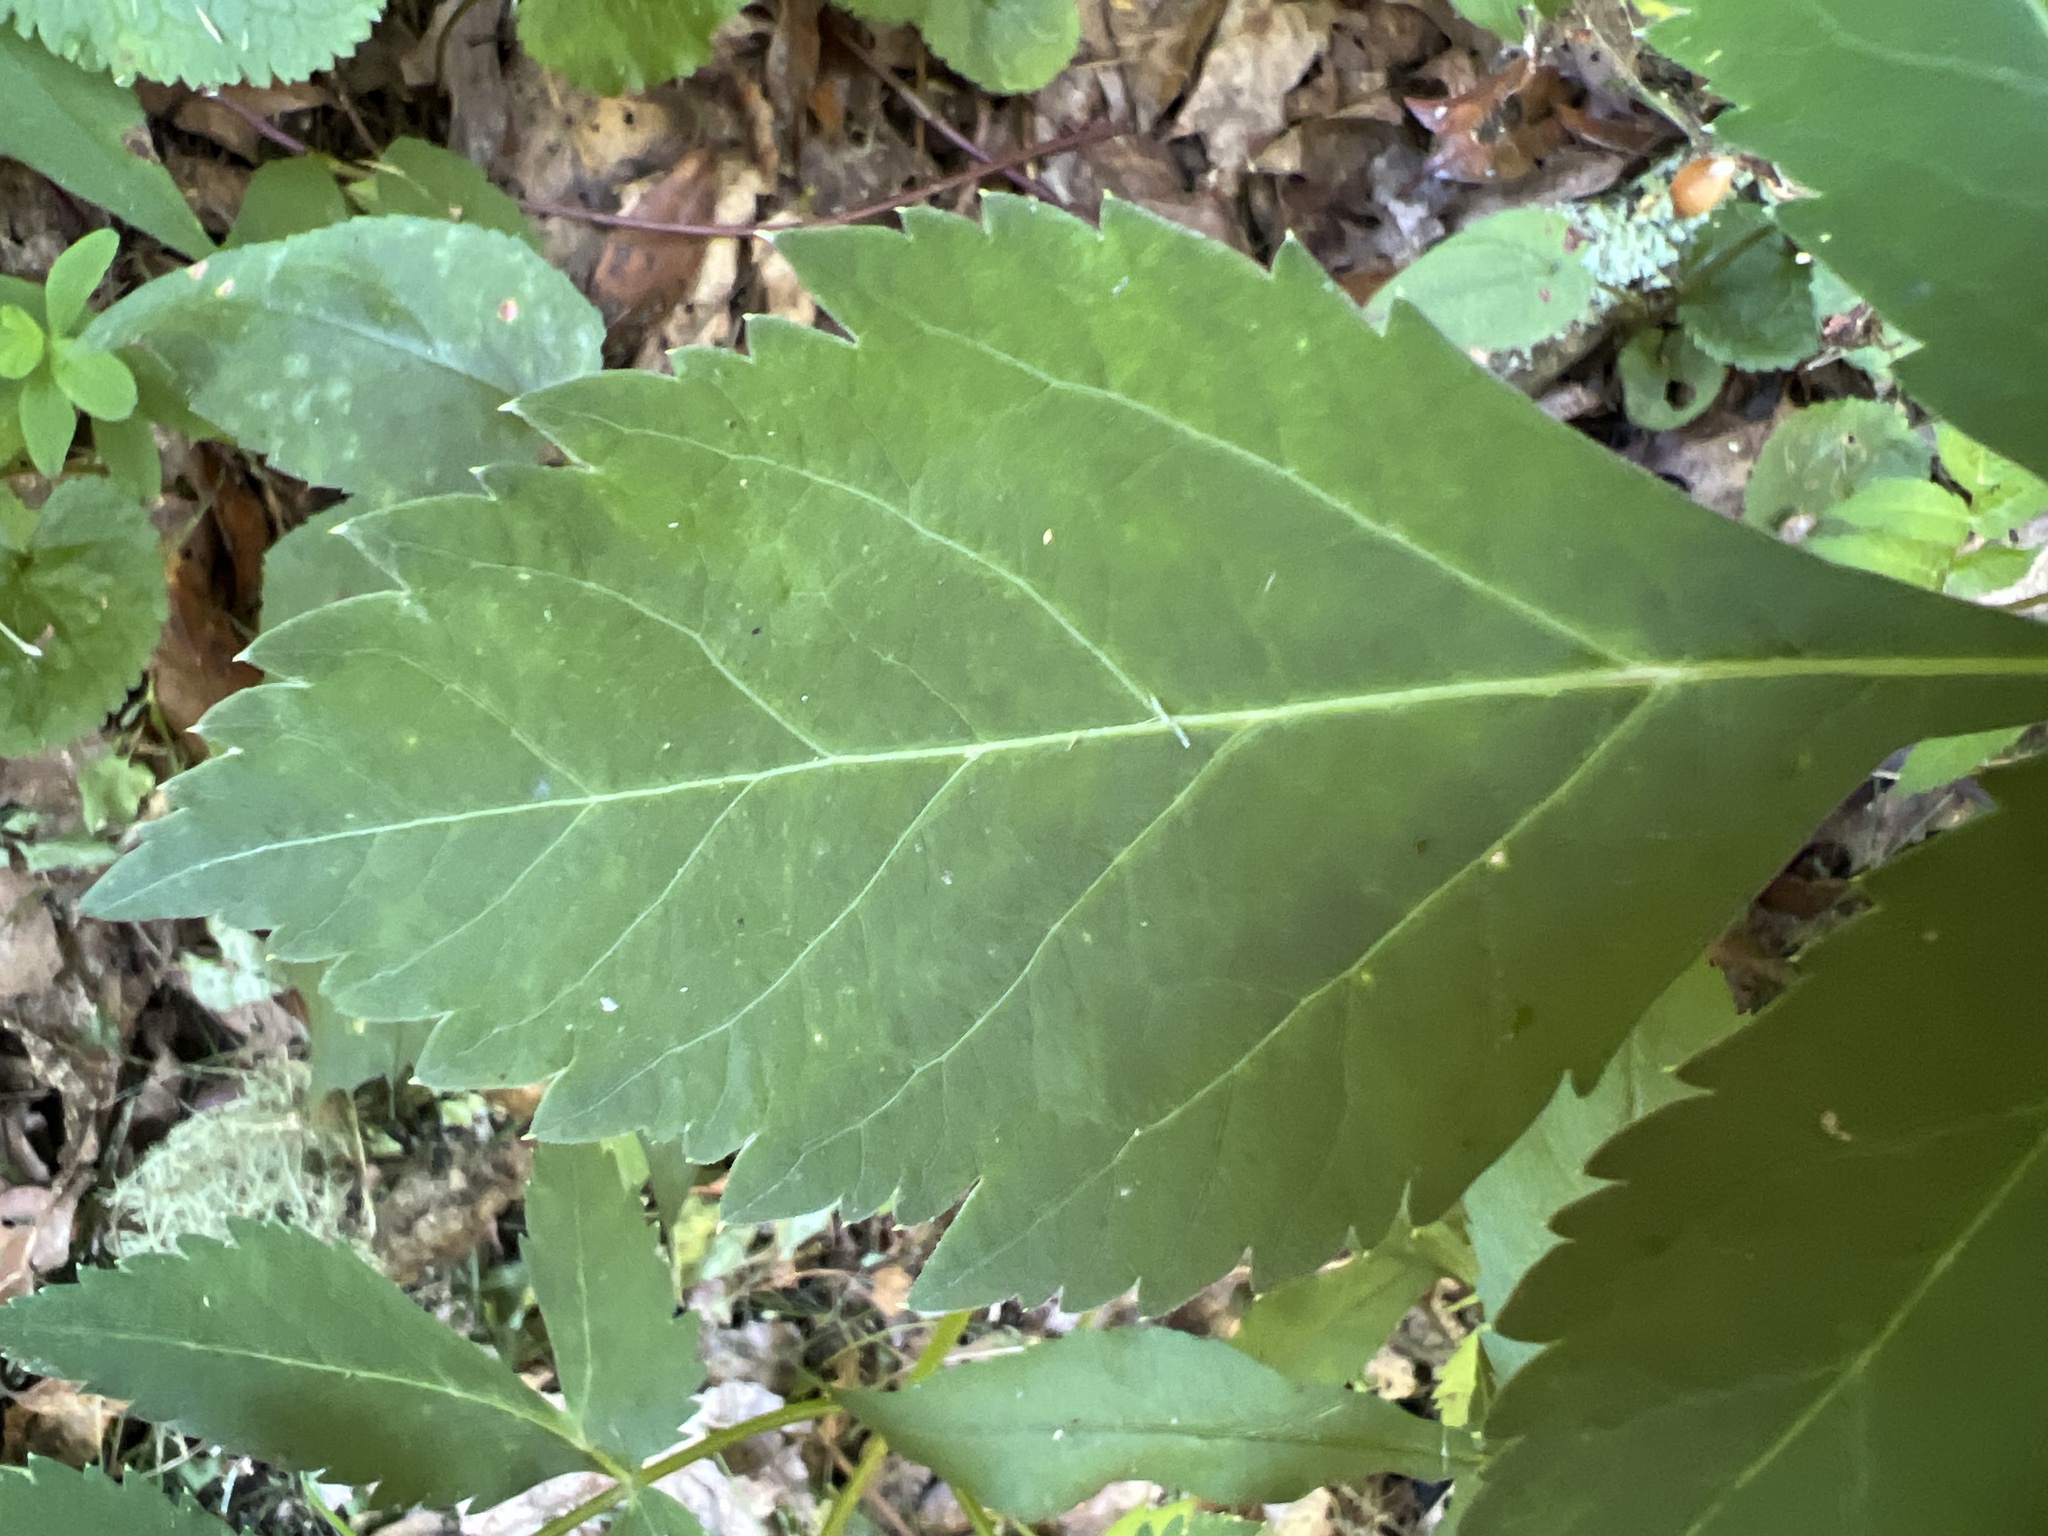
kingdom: Plantae
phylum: Tracheophyta
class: Magnoliopsida
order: Apiales
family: Apiaceae
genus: Angelica
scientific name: Angelica triquinata
